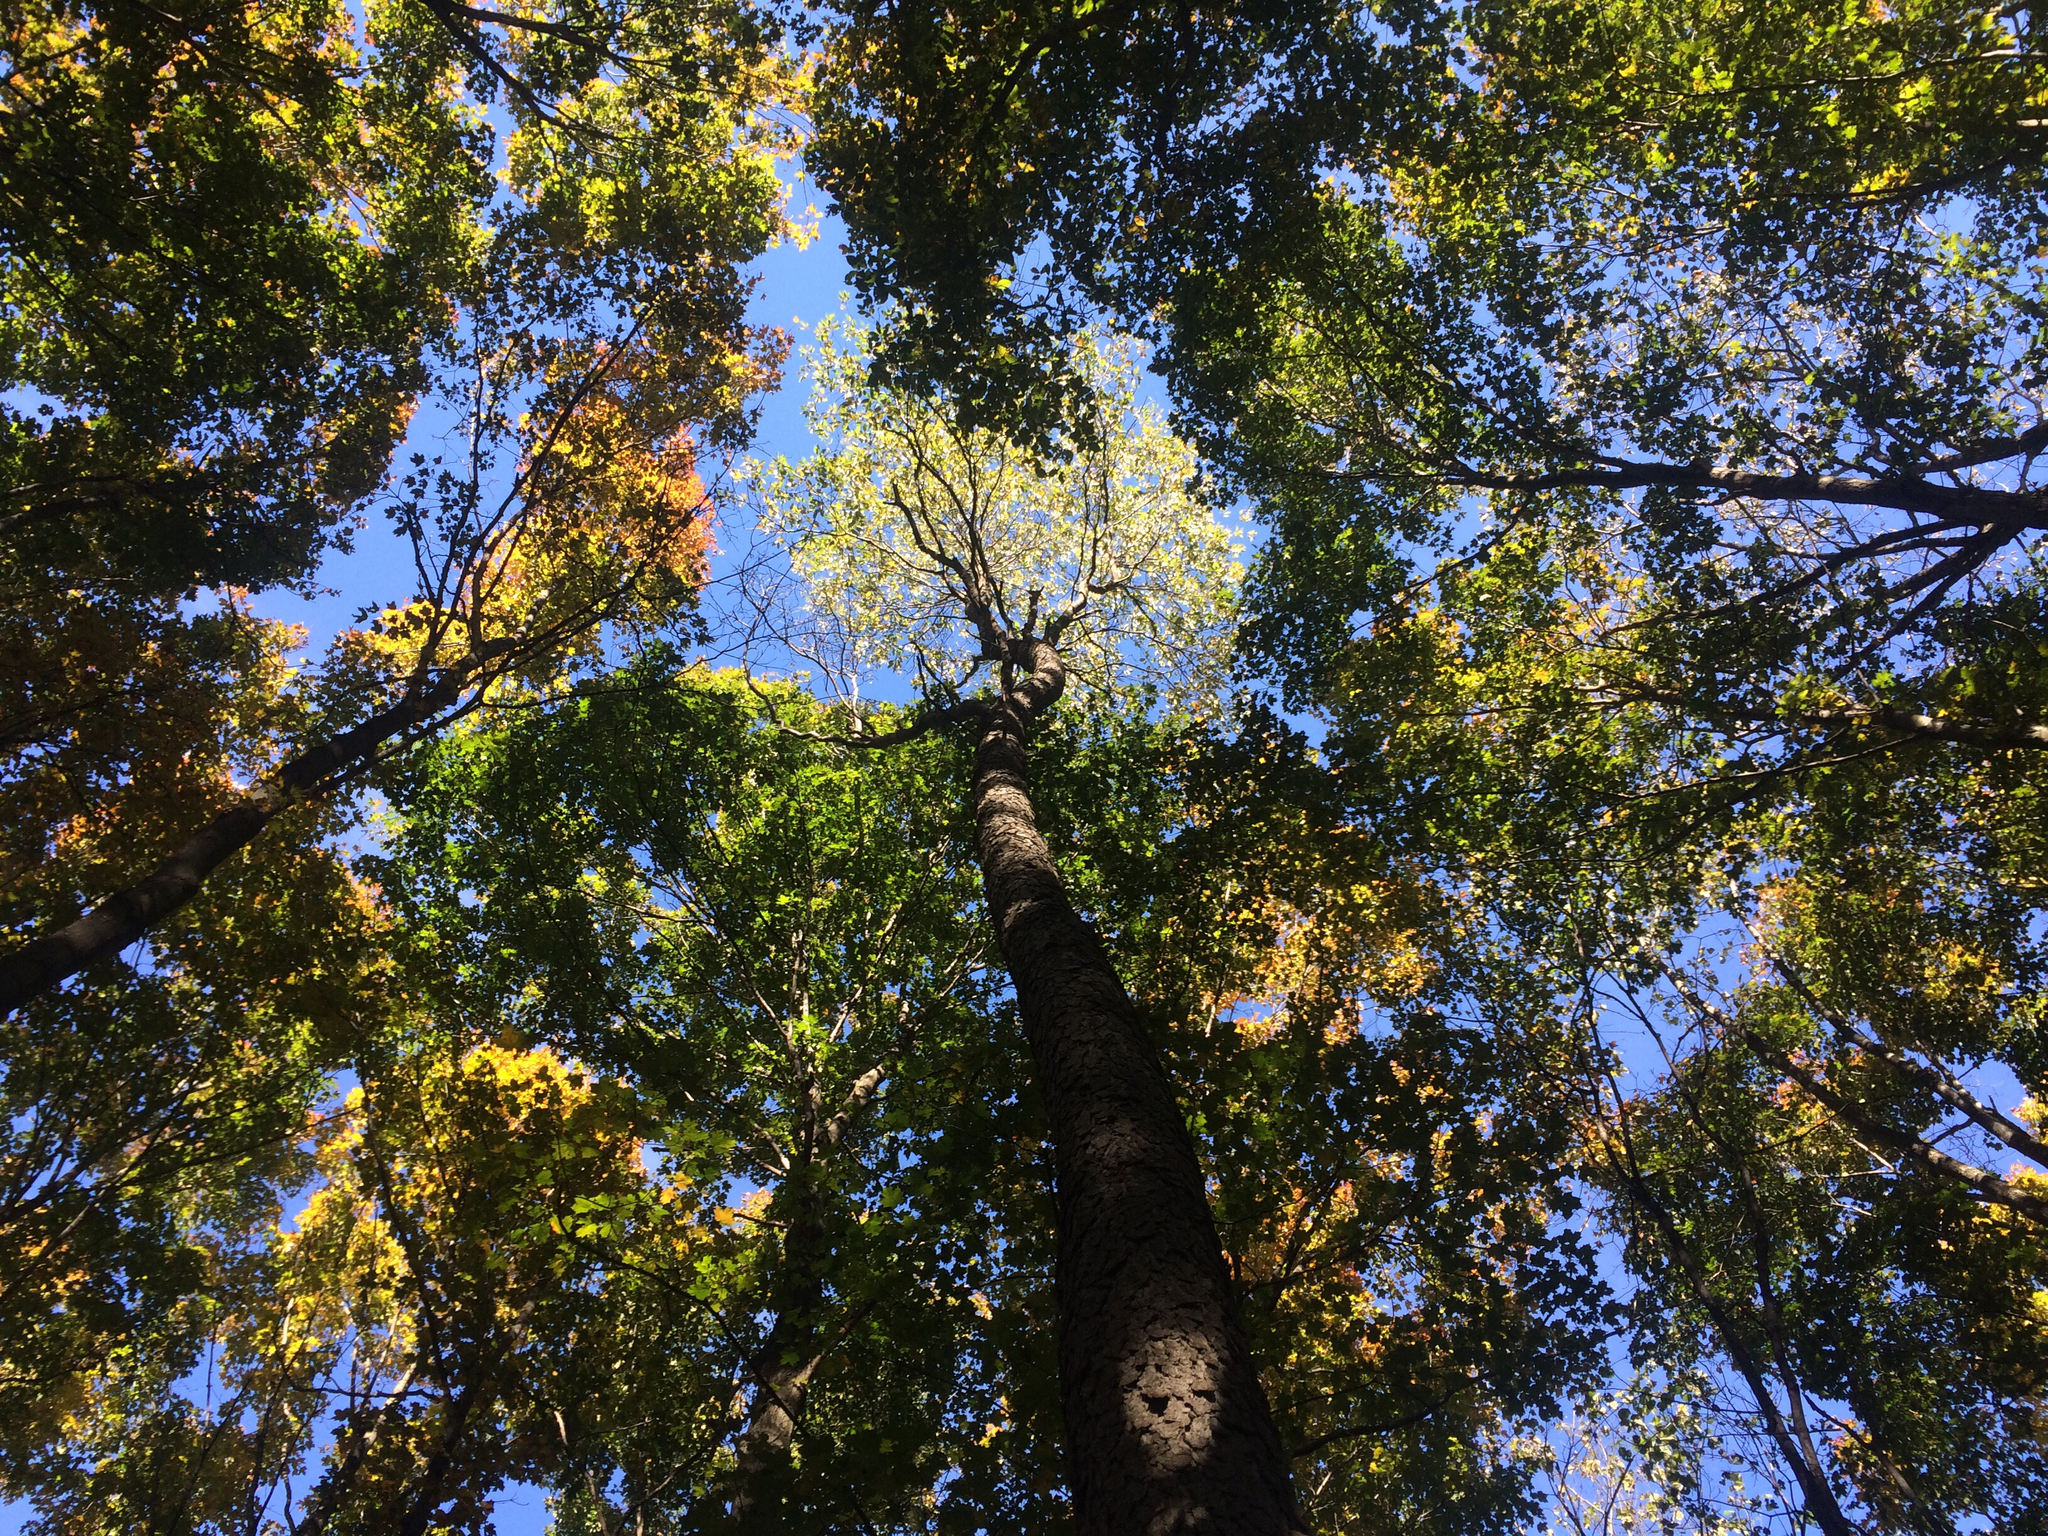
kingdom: Plantae
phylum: Tracheophyta
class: Magnoliopsida
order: Rosales
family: Rosaceae
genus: Prunus
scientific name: Prunus serotina
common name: Black cherry
